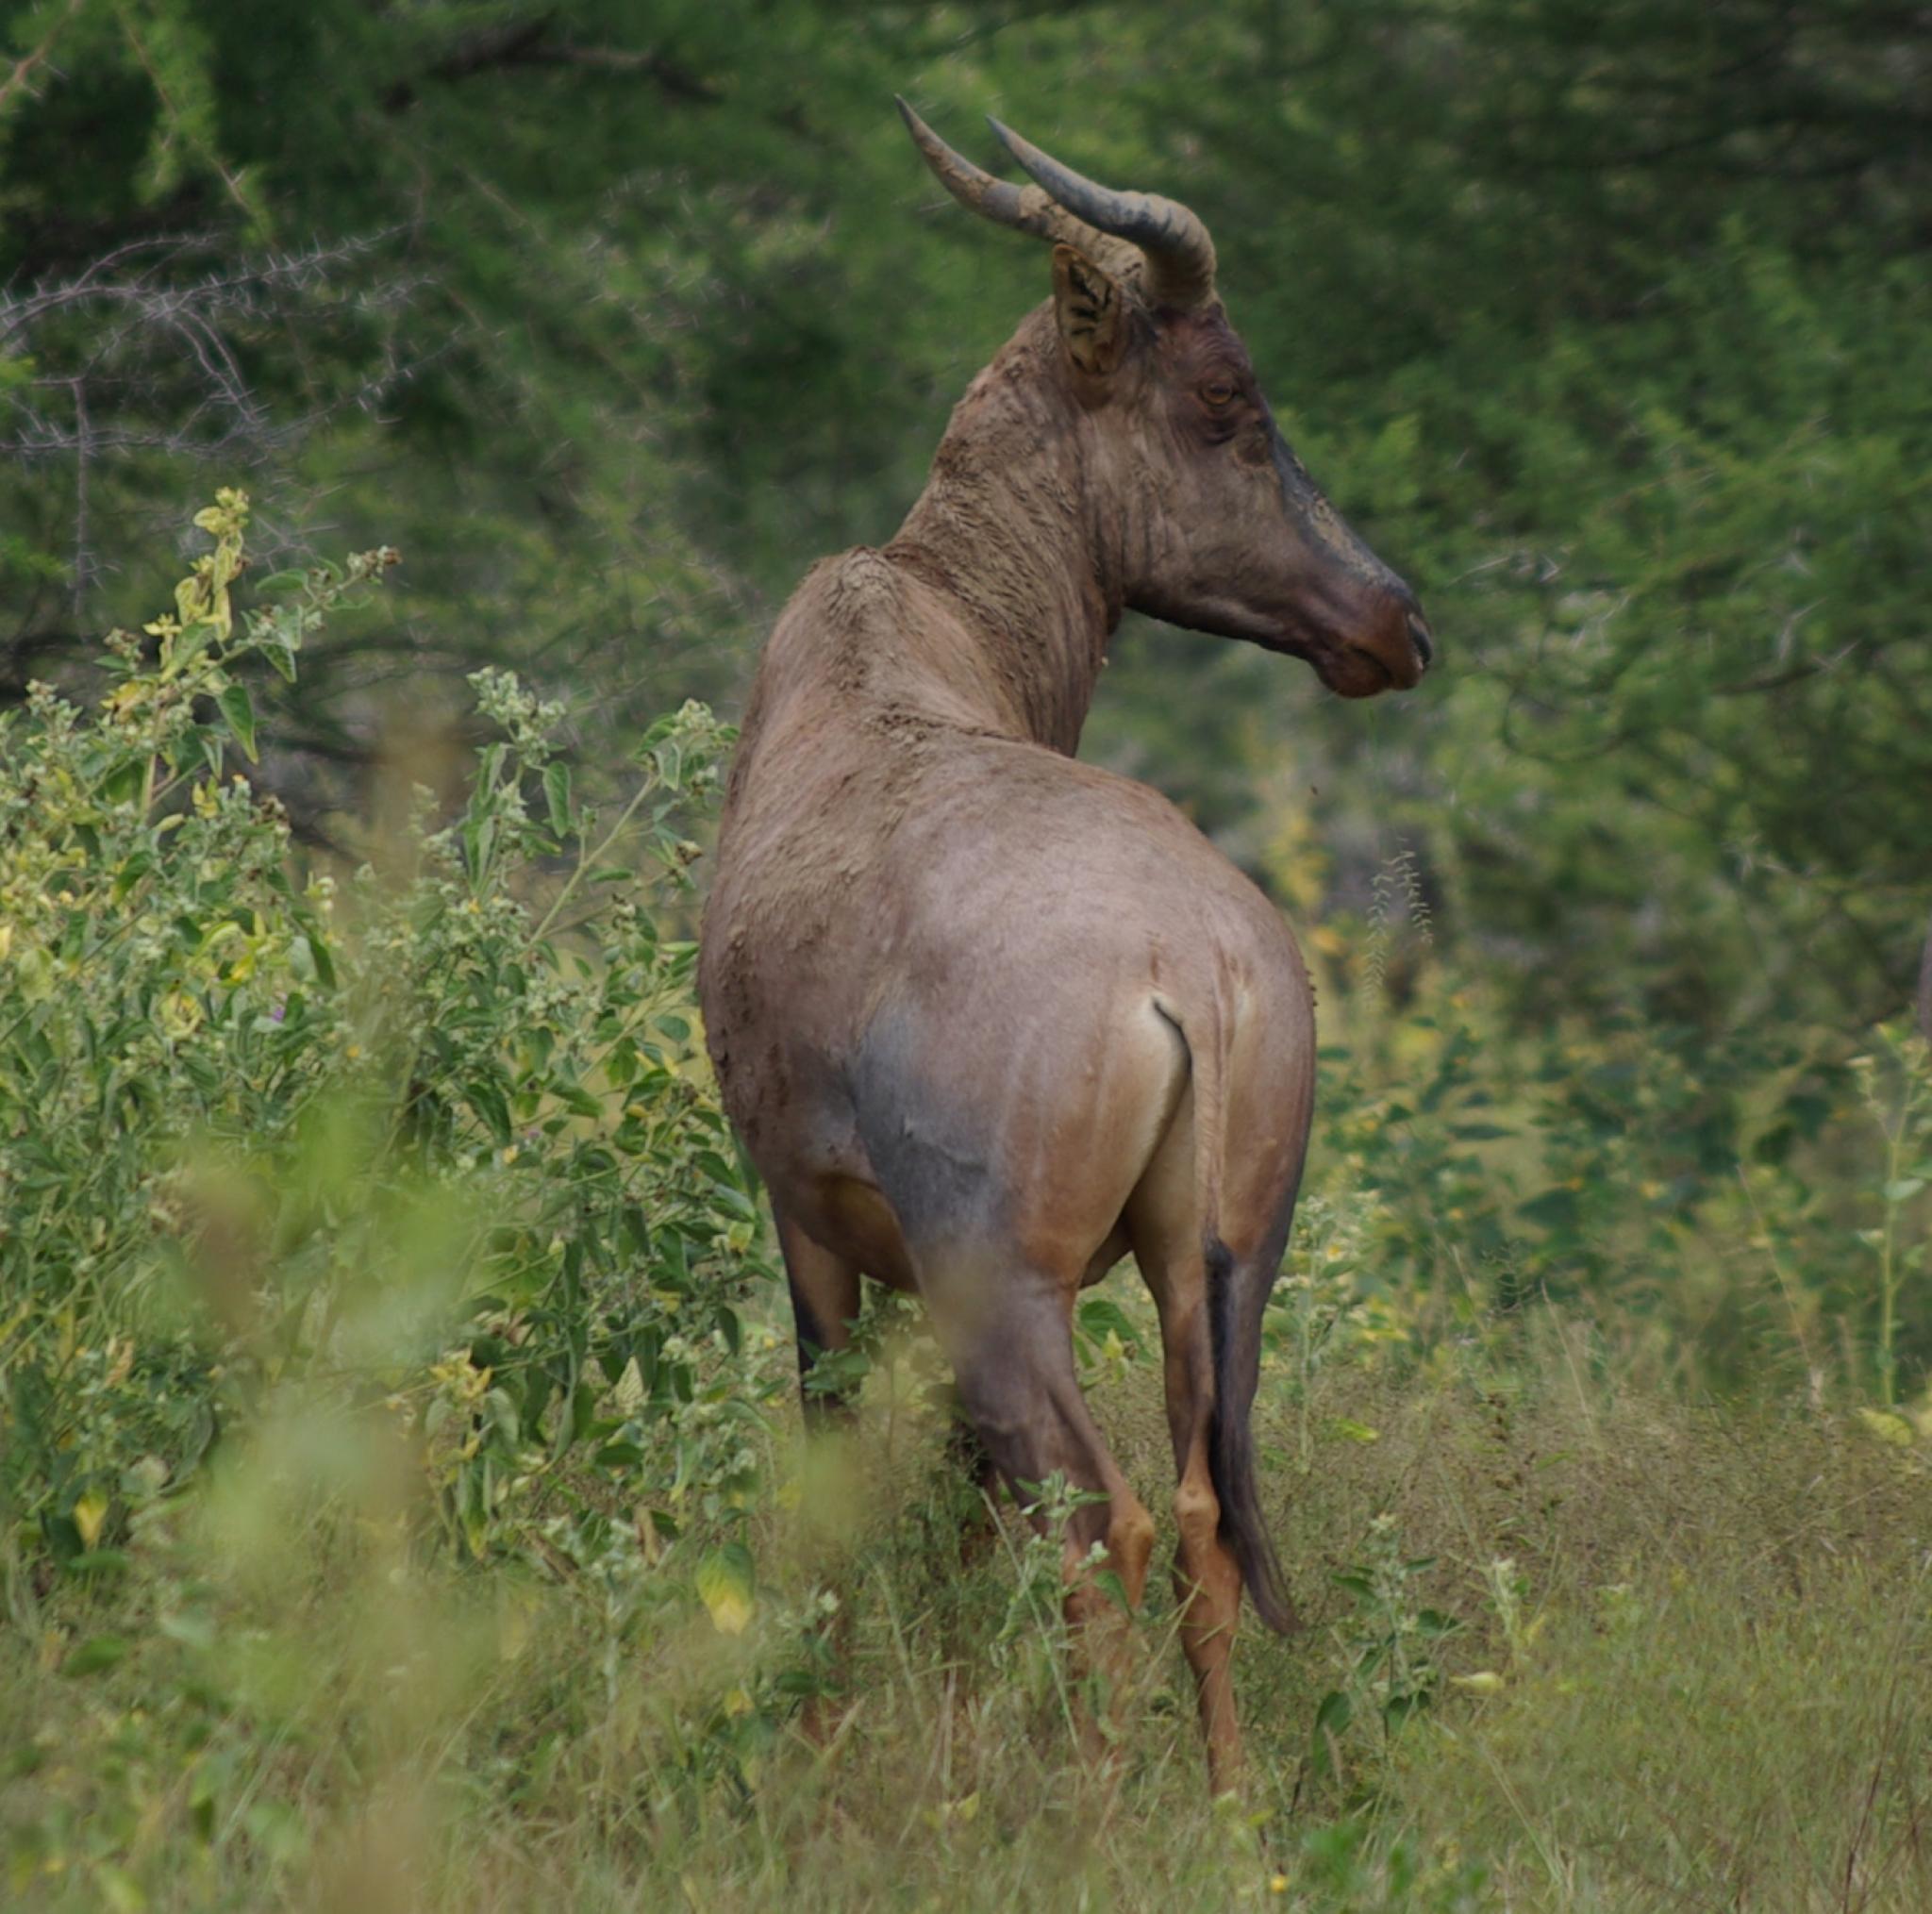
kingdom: Animalia
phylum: Chordata
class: Mammalia
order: Artiodactyla
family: Bovidae
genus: Damaliscus
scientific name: Damaliscus lunatus
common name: Common tsessebe
